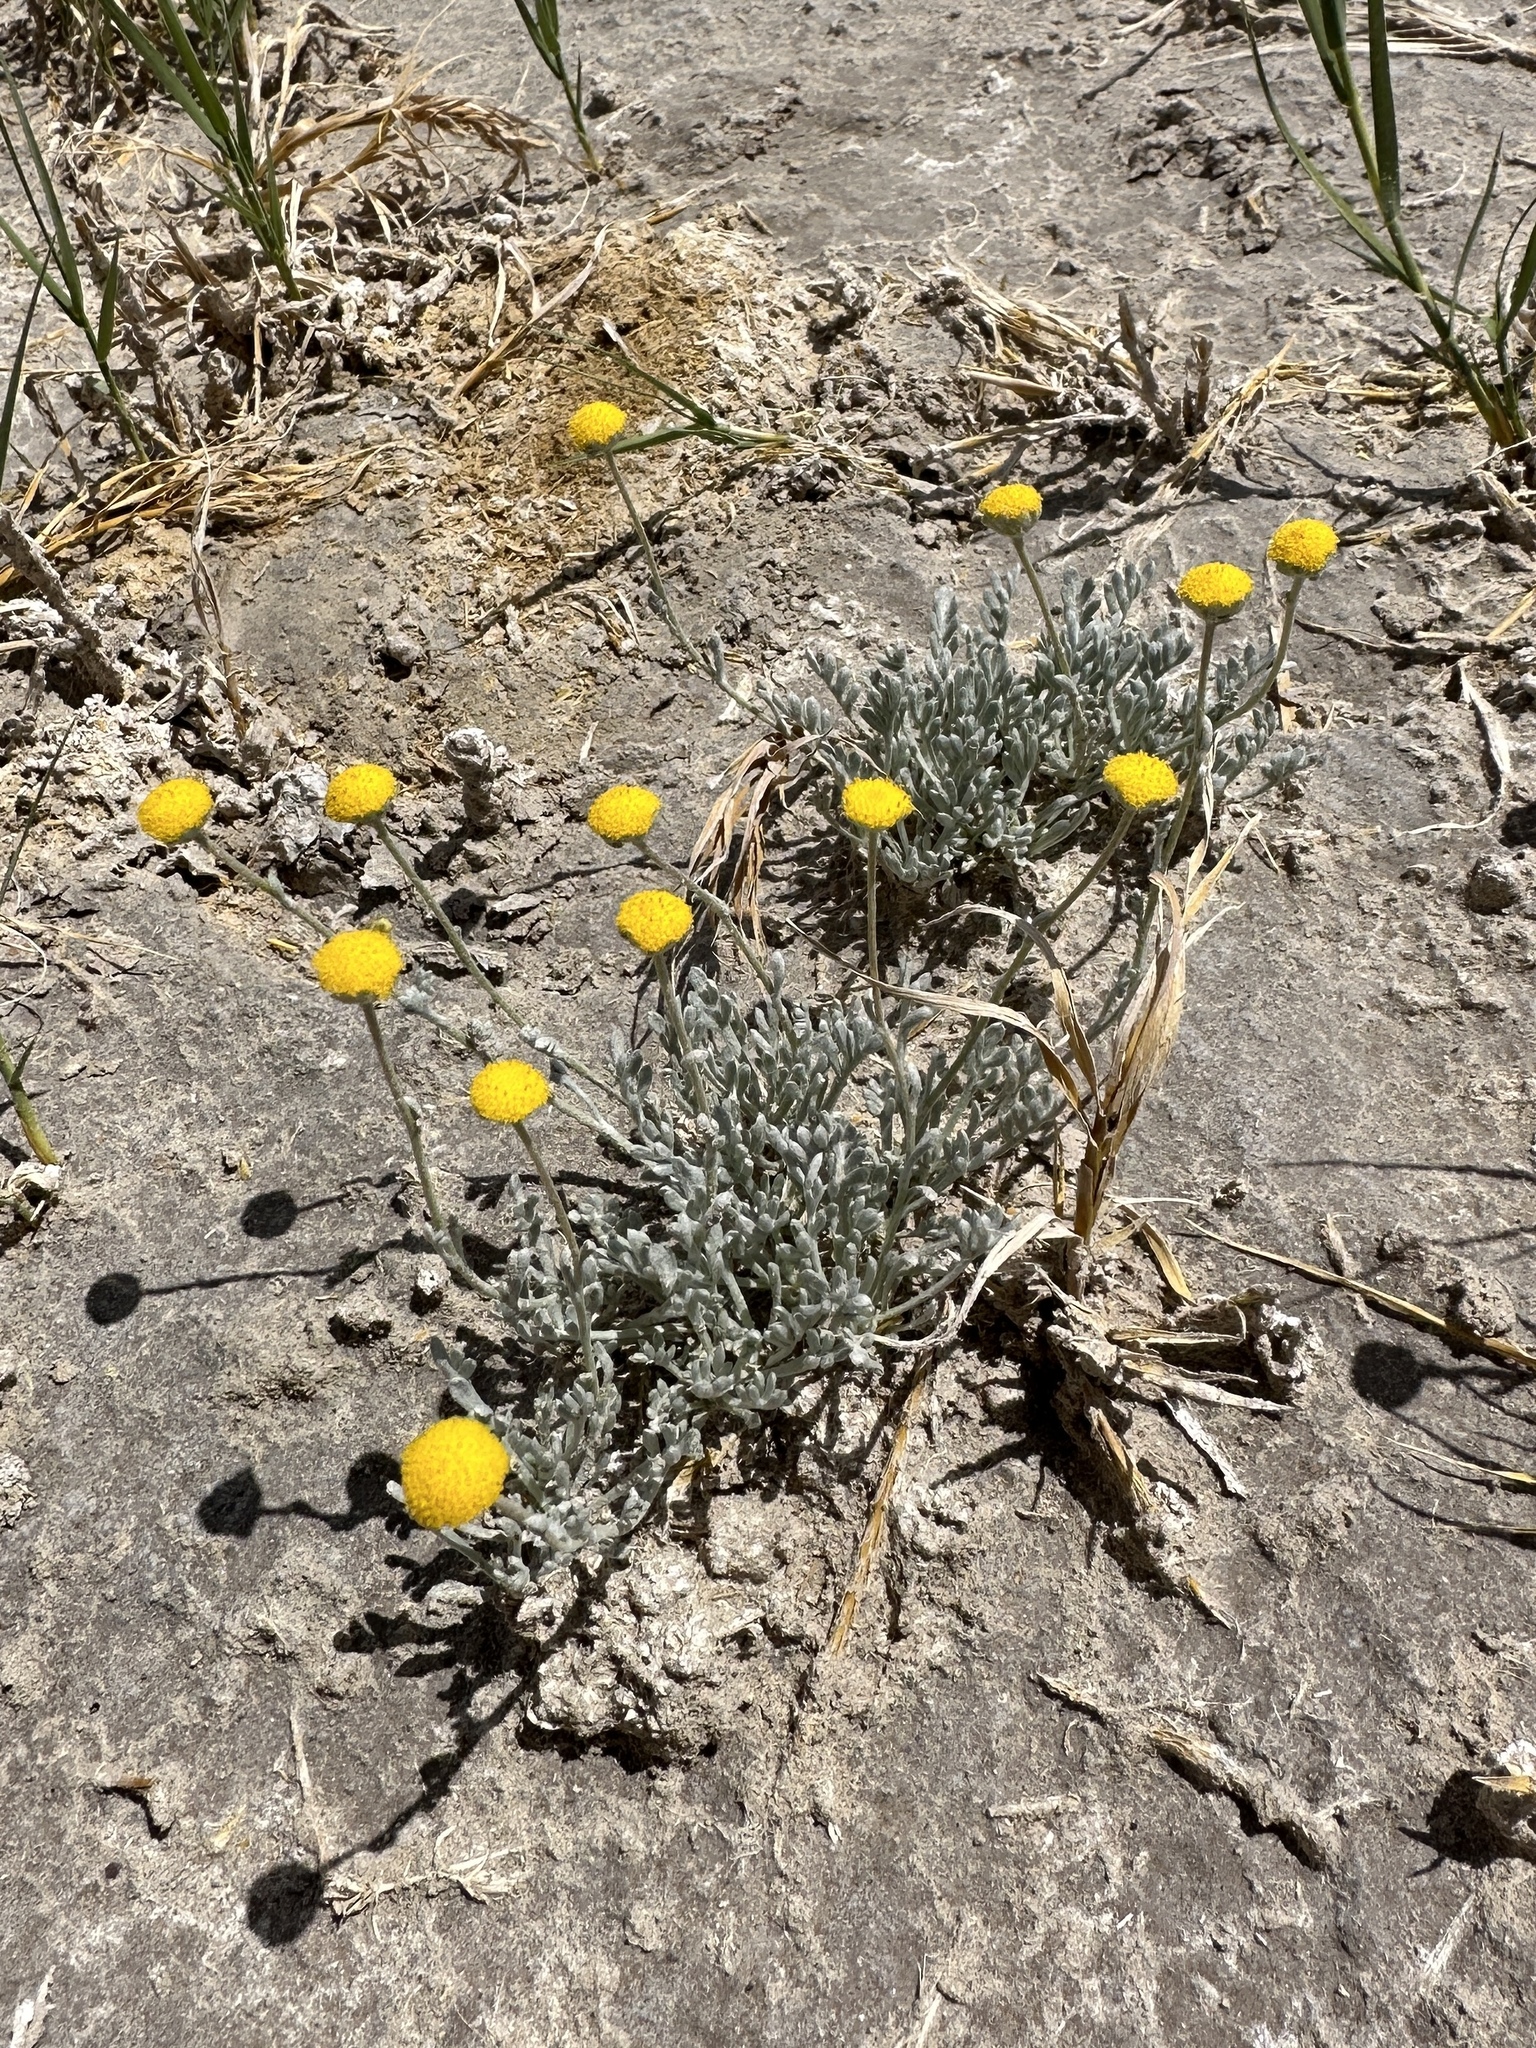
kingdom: Plantae
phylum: Tracheophyta
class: Magnoliopsida
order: Asterales
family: Asteraceae
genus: Artemisia
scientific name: Artemisia potentilloides
